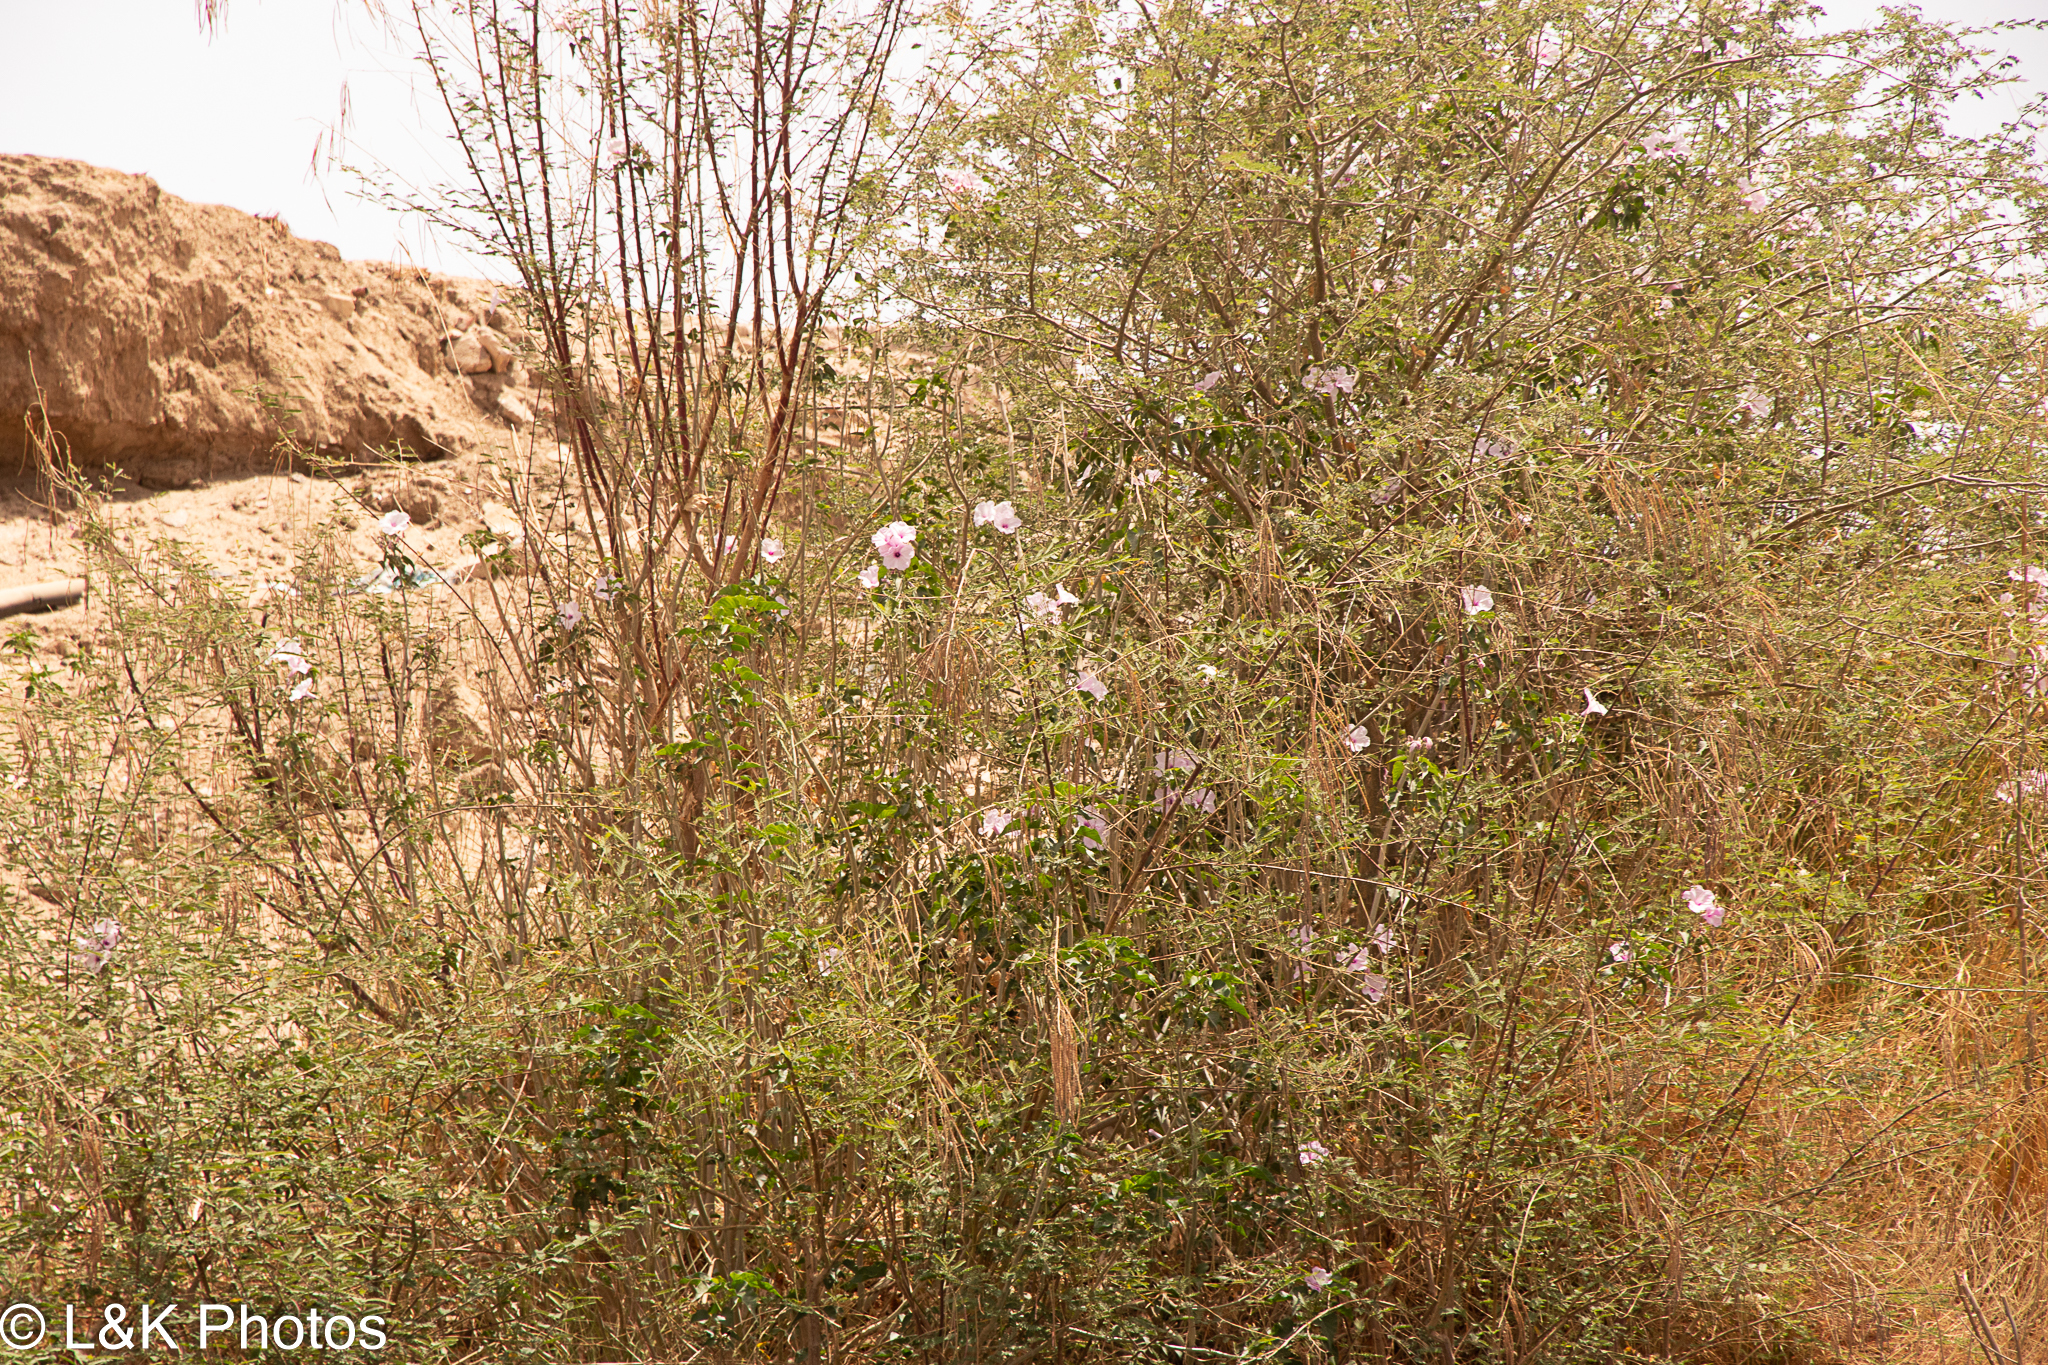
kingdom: Plantae
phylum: Tracheophyta
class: Magnoliopsida
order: Solanales
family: Convolvulaceae
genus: Ipomoea
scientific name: Ipomoea carnea
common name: Morning-glory
